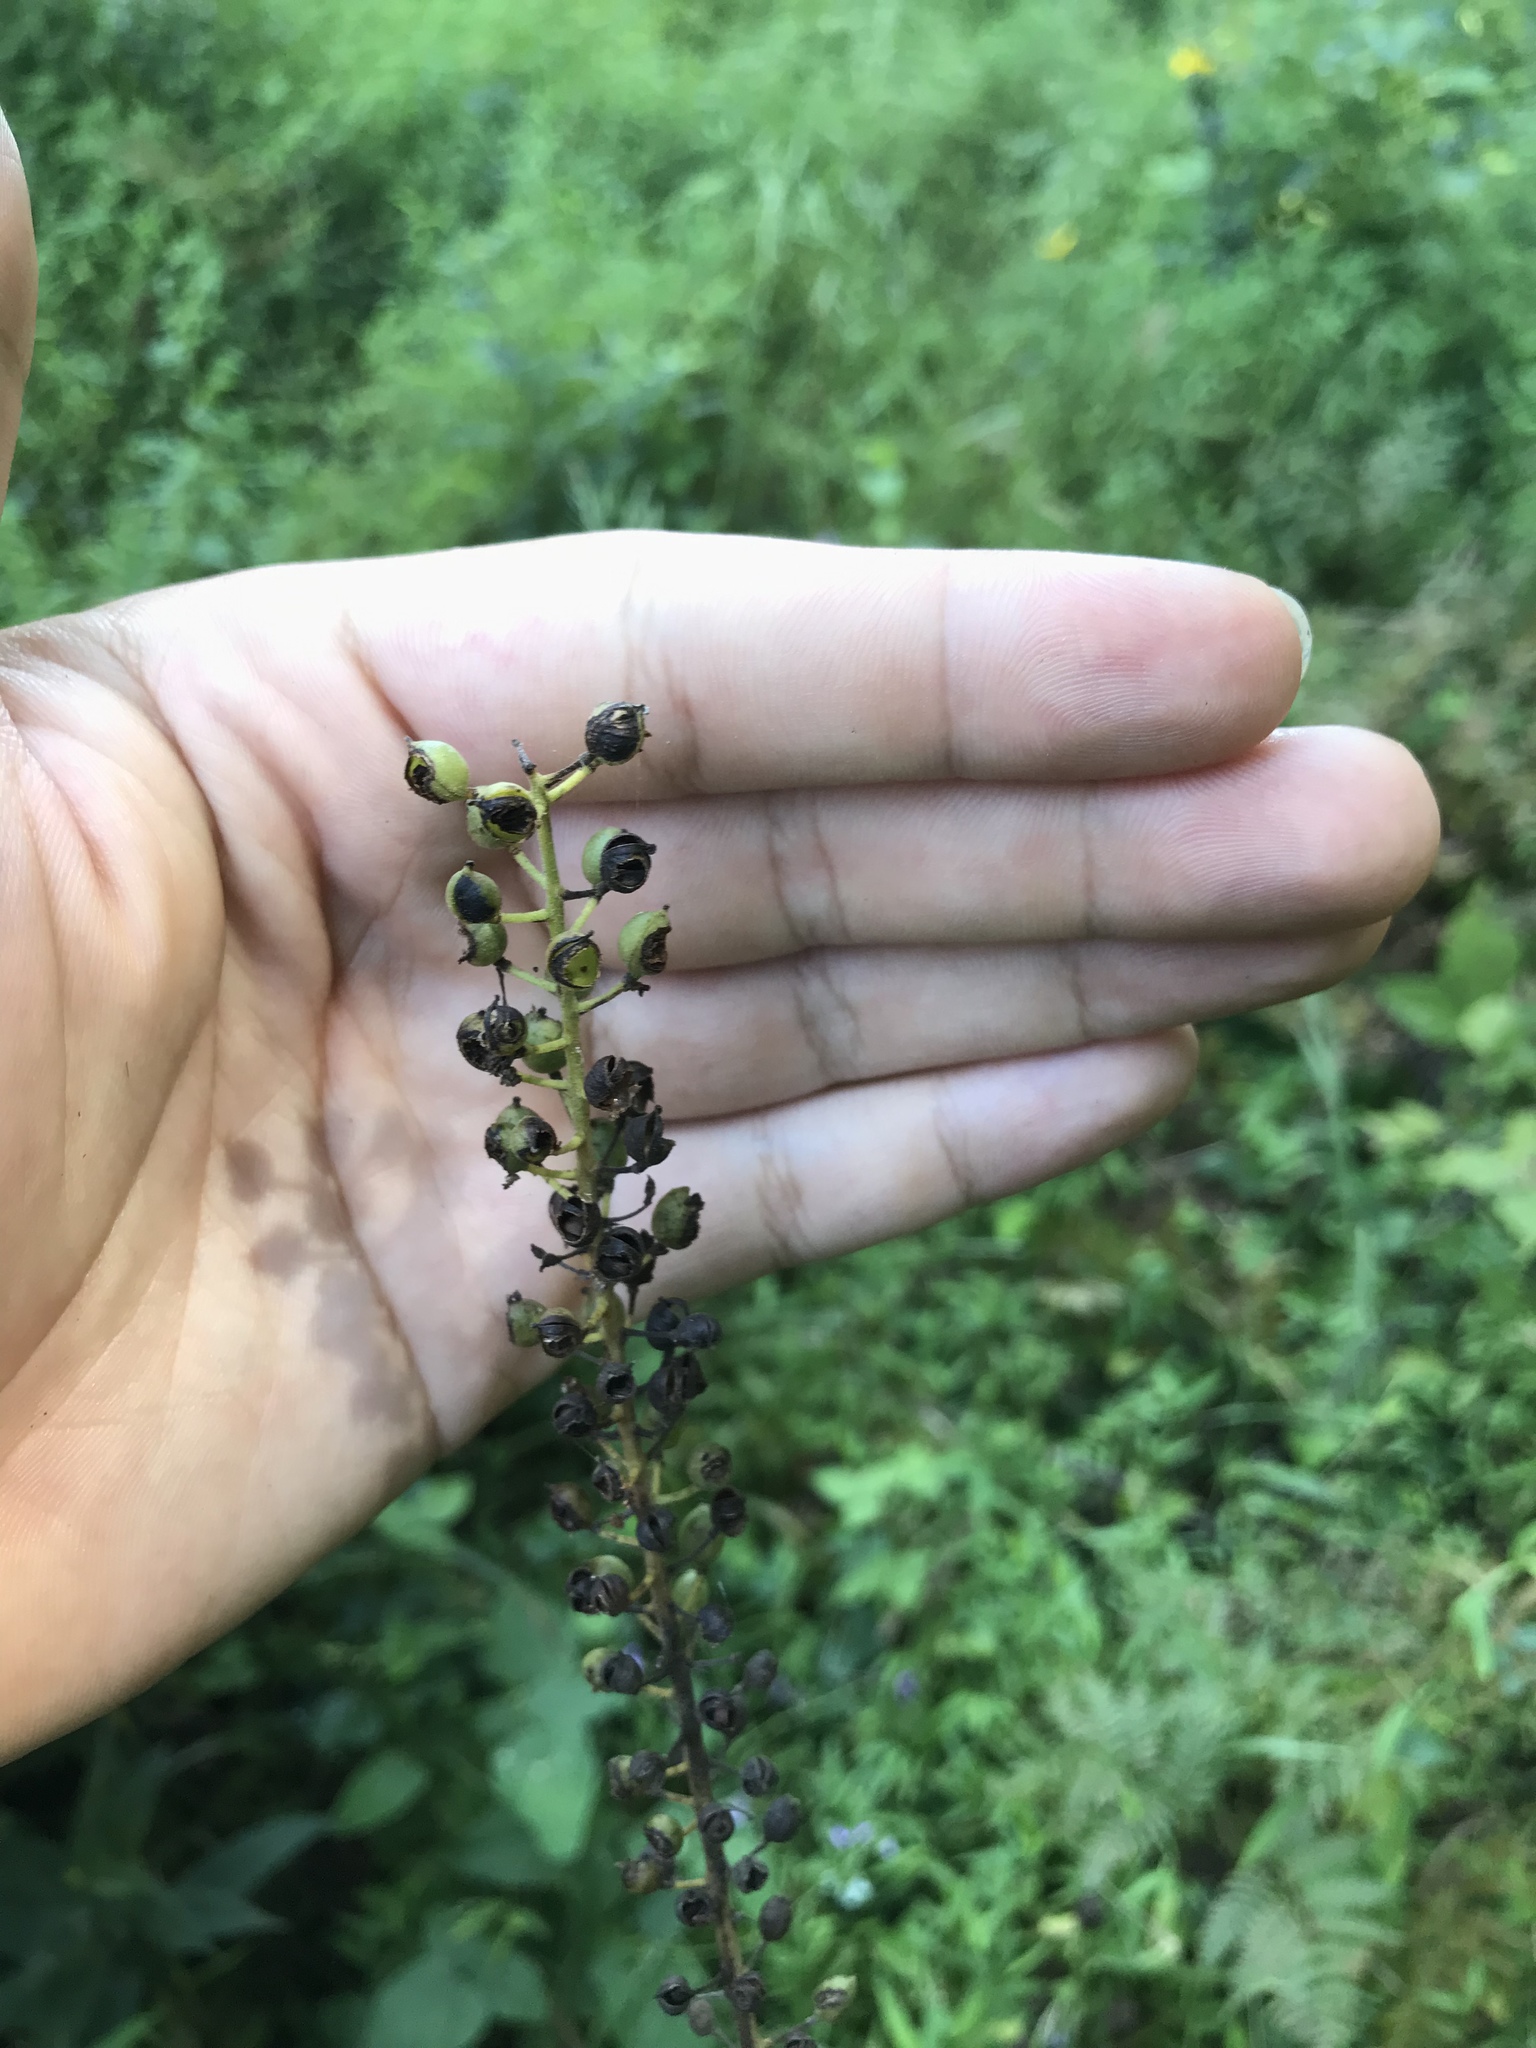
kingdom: Plantae
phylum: Tracheophyta
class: Magnoliopsida
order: Ranunculales
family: Ranunculaceae
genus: Actaea
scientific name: Actaea racemosa
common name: Black cohosh
